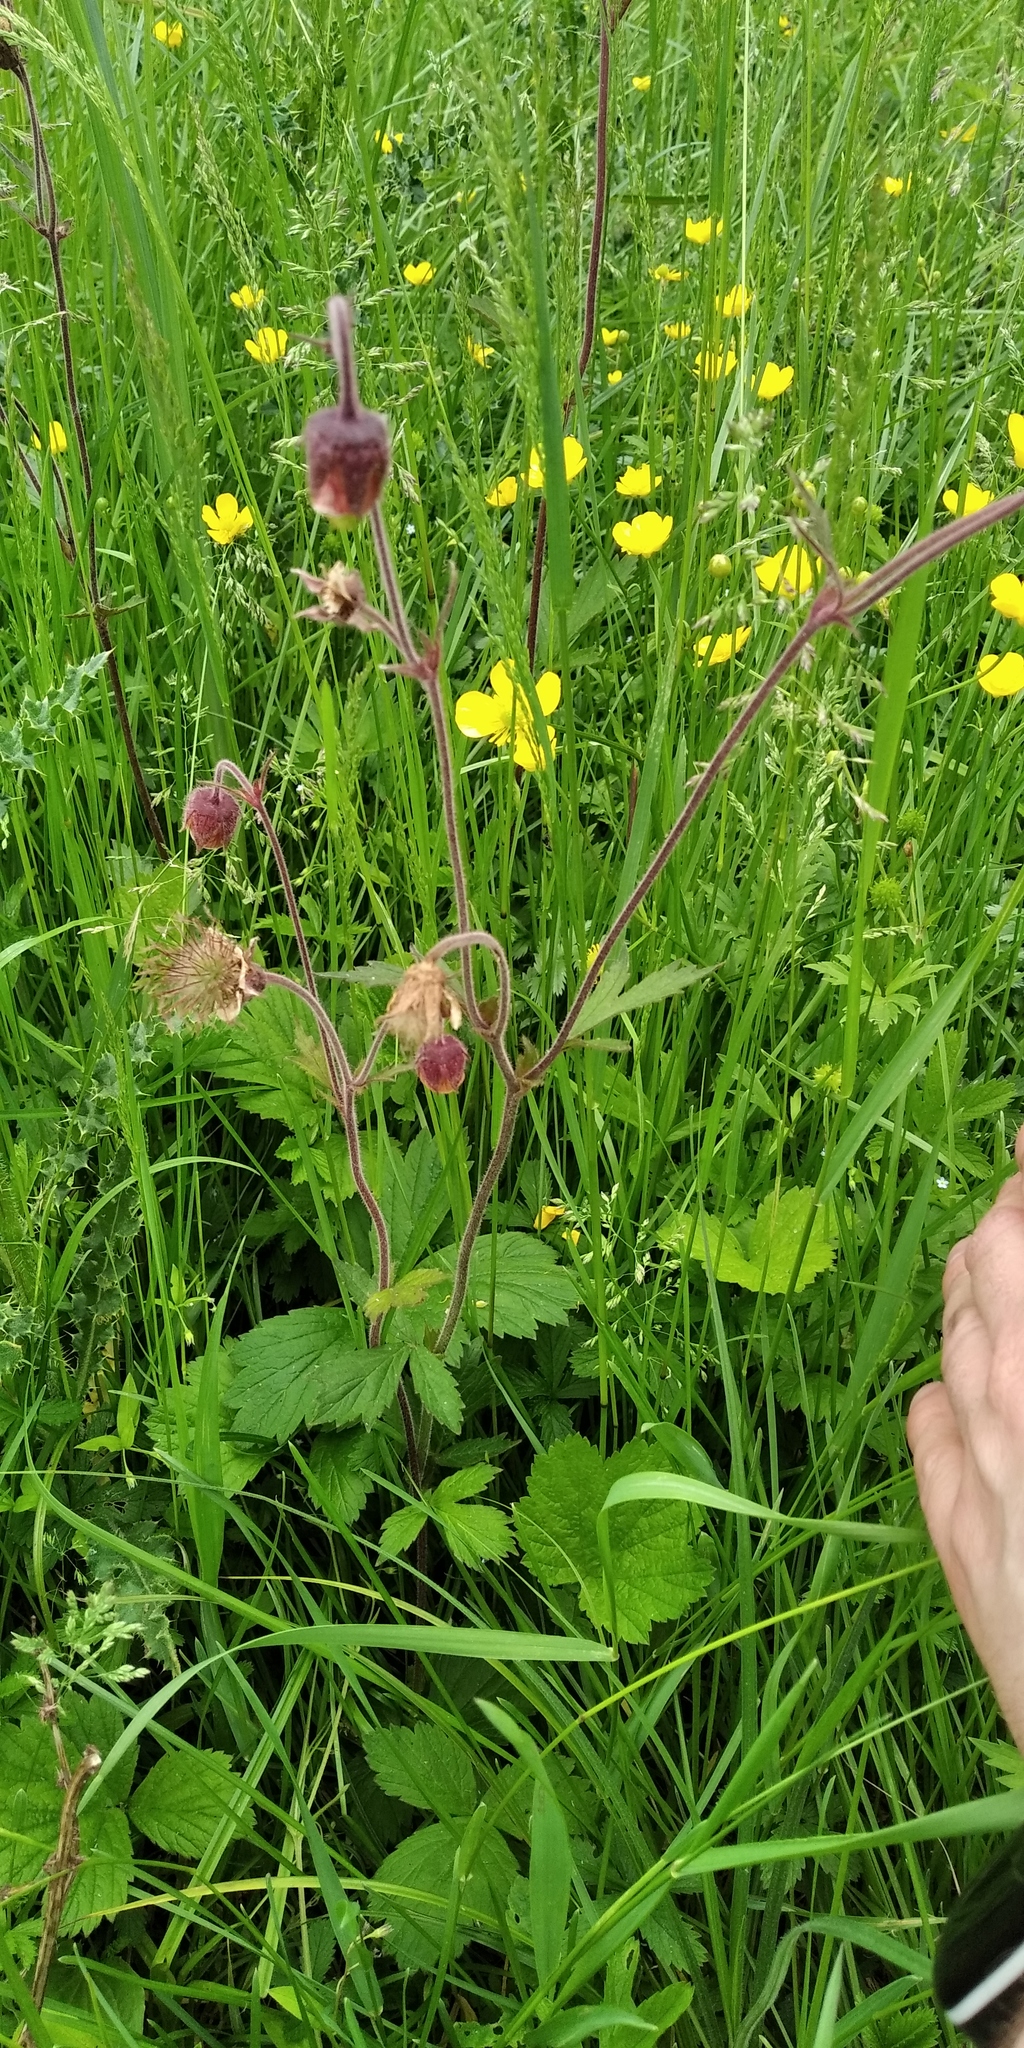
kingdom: Plantae
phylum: Tracheophyta
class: Magnoliopsida
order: Rosales
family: Rosaceae
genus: Geum
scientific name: Geum rivale
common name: Water avens
